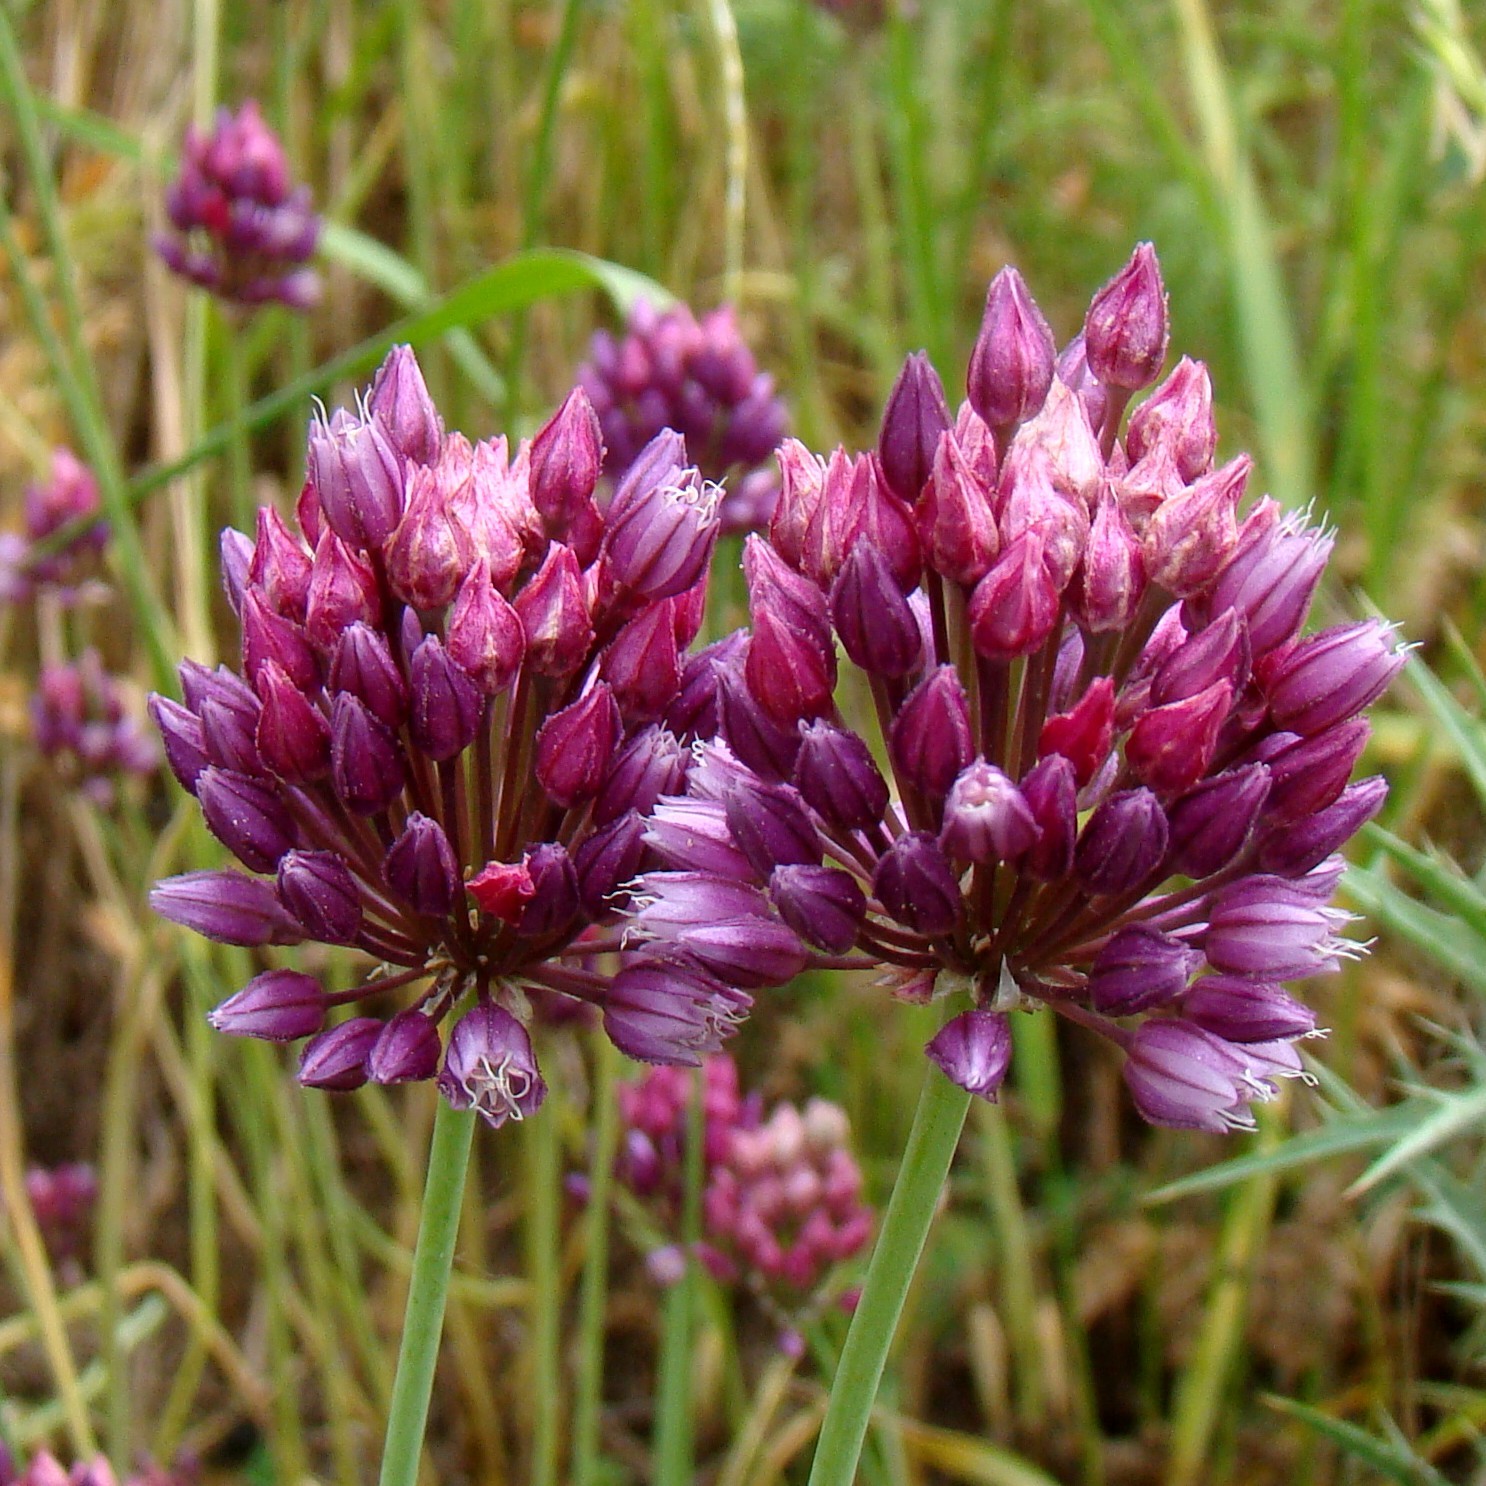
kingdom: Plantae
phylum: Tracheophyta
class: Liliopsida
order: Asparagales
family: Amaryllidaceae
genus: Allium
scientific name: Allium rotundum
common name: Sand leek
